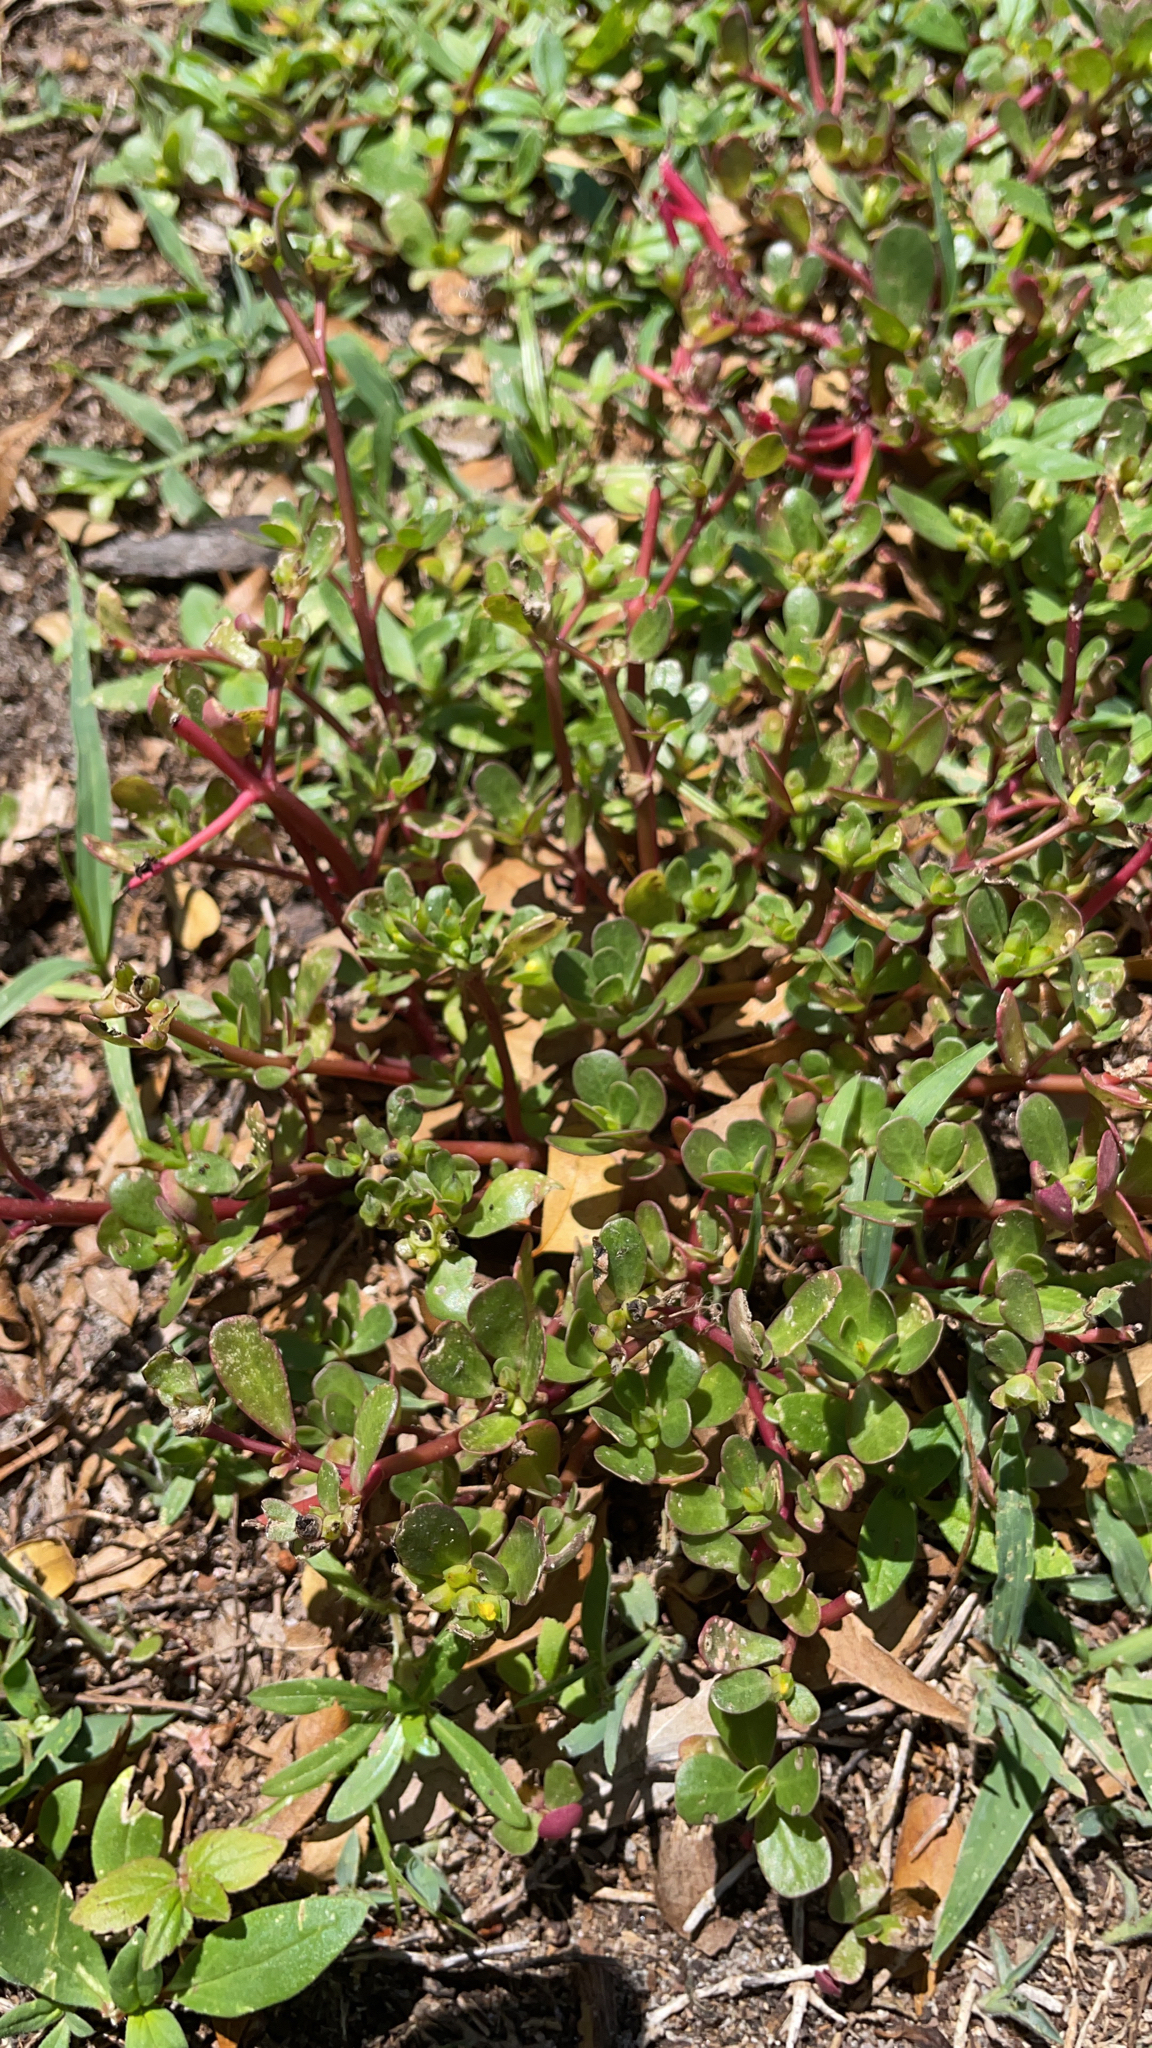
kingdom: Plantae
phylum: Tracheophyta
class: Magnoliopsida
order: Caryophyllales
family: Portulacaceae
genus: Portulaca
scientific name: Portulaca oleracea
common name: Common purslane
